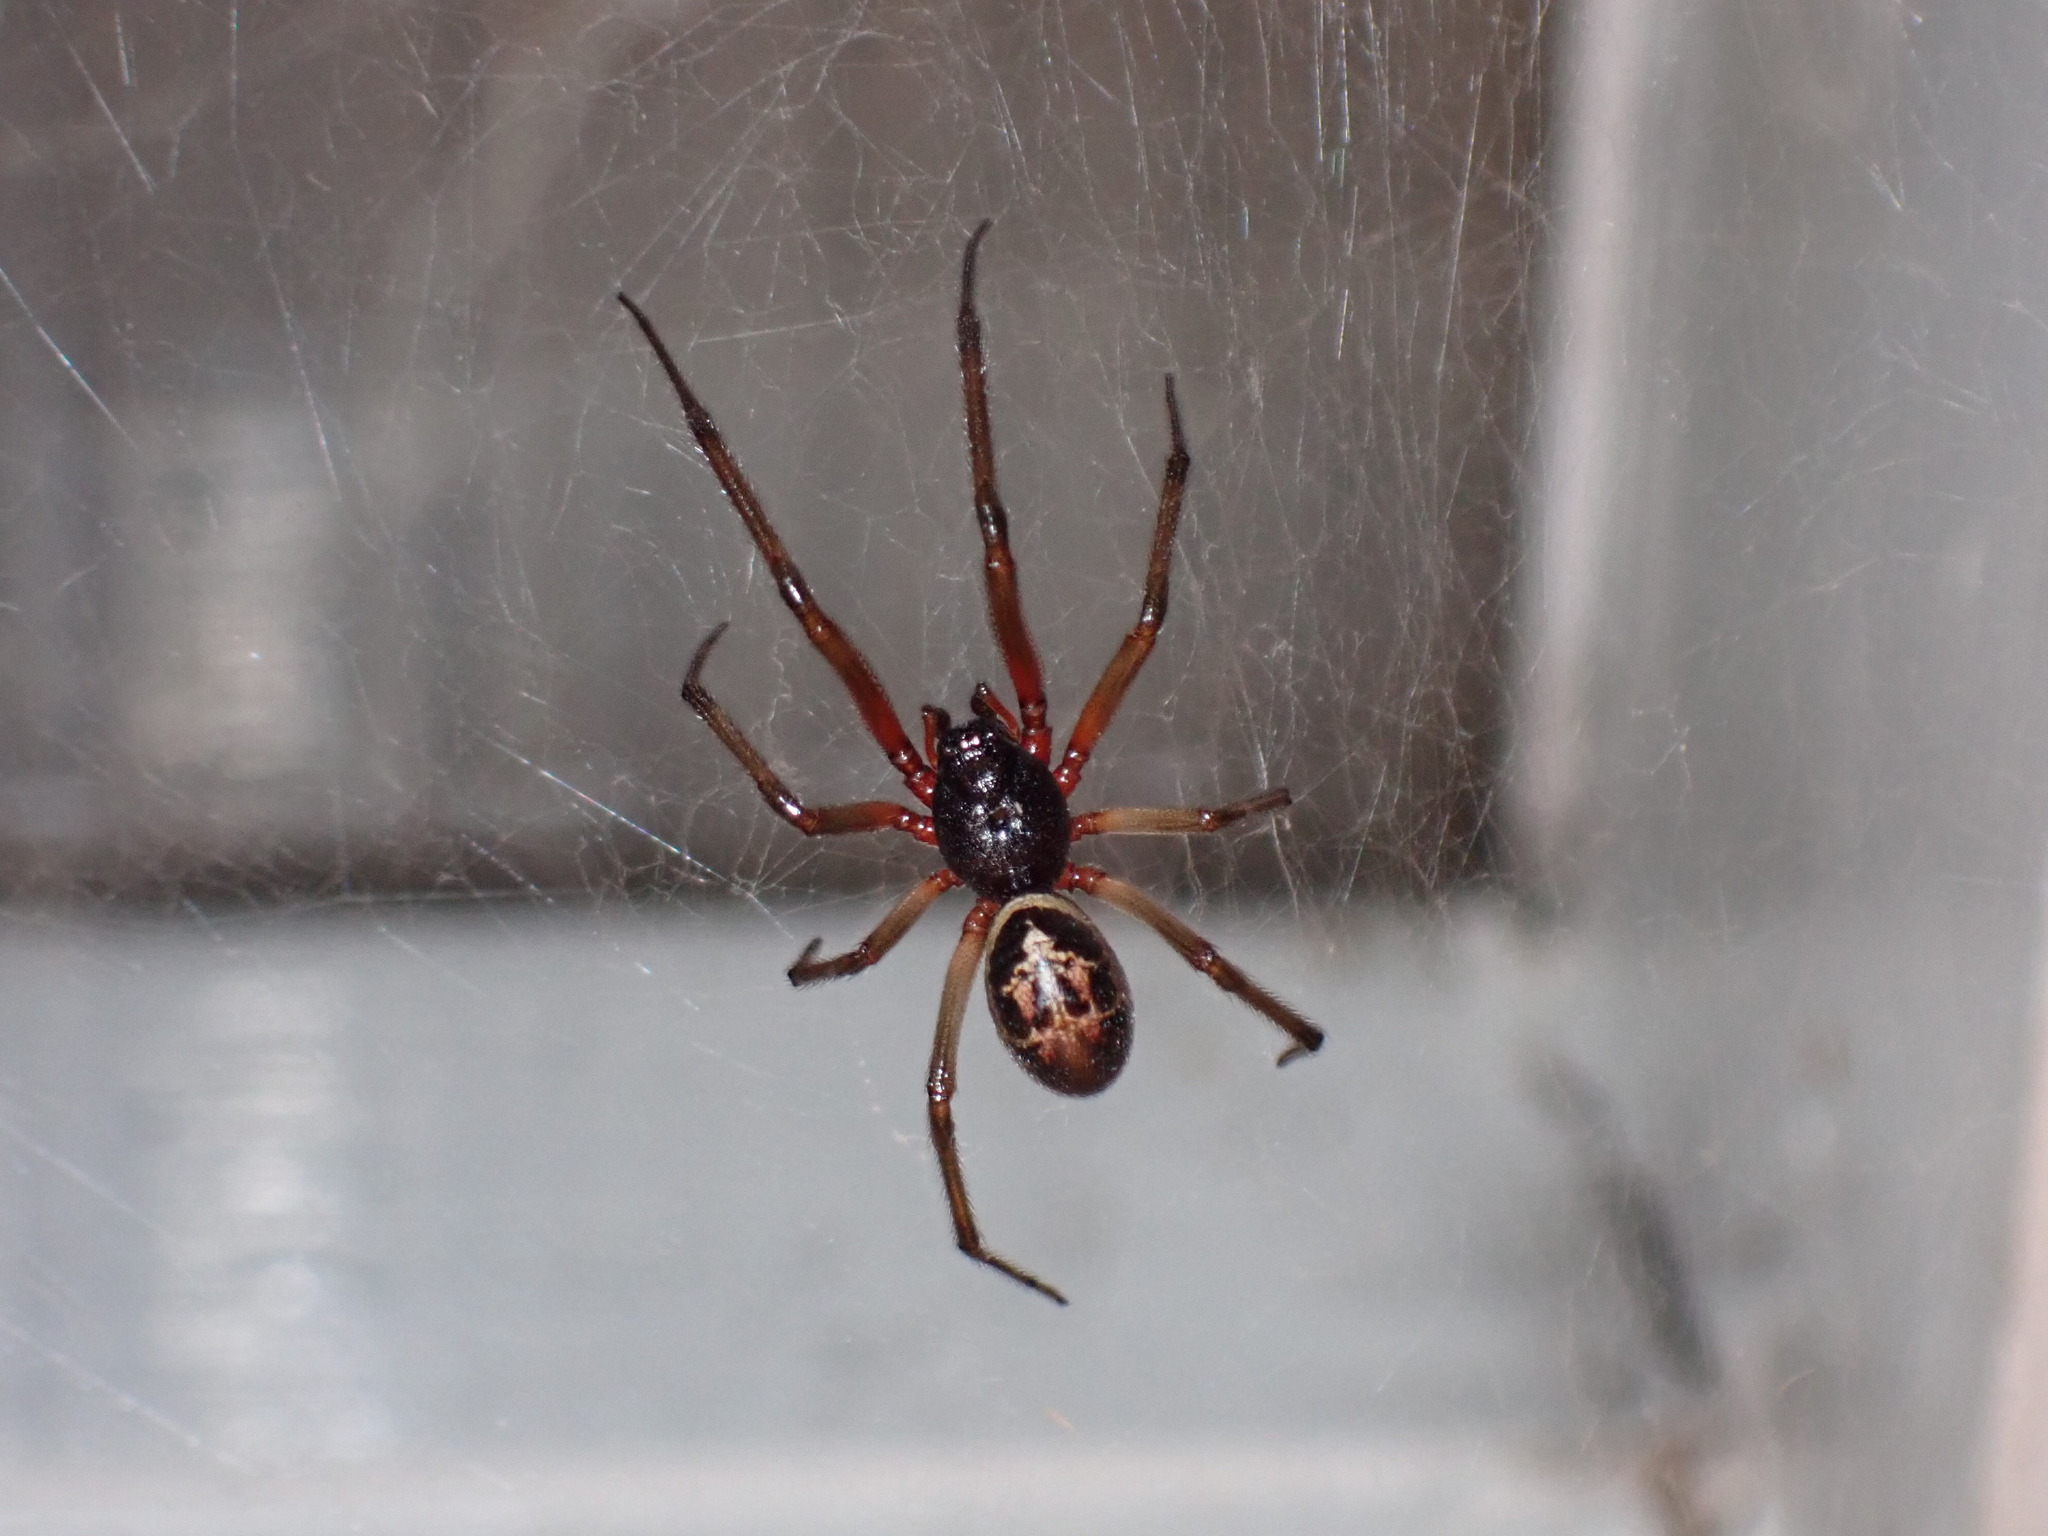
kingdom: Animalia
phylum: Arthropoda
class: Arachnida
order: Araneae
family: Theridiidae
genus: Steatoda
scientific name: Steatoda nobilis
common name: Cobweb weaver
